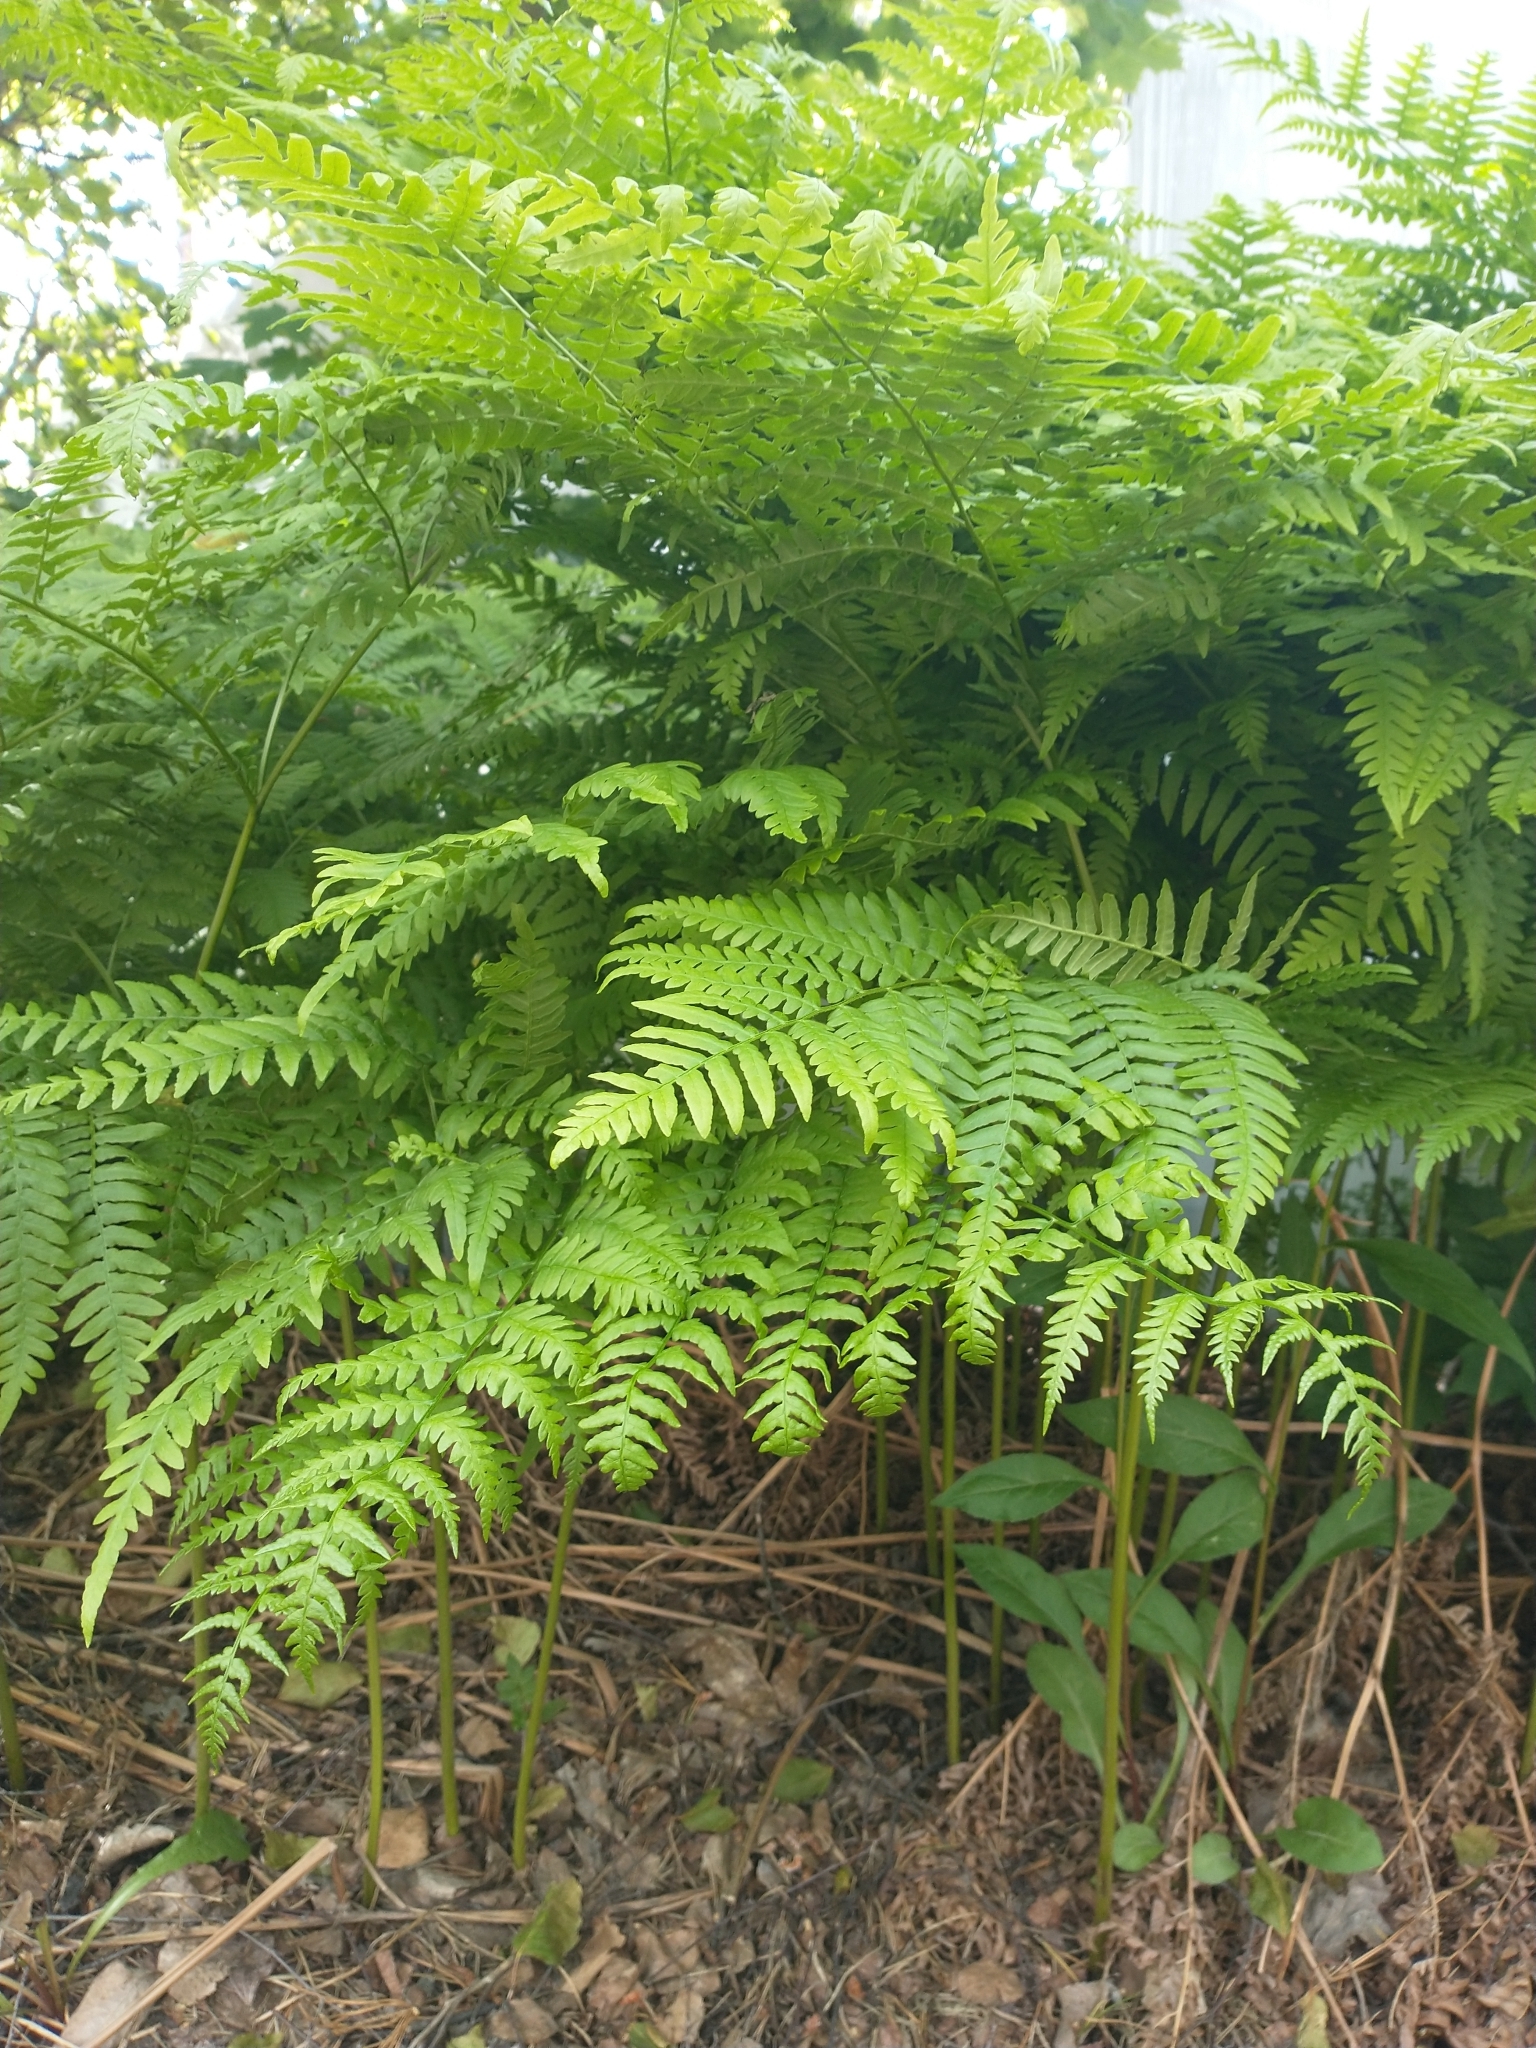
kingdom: Plantae
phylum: Tracheophyta
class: Polypodiopsida
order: Polypodiales
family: Dennstaedtiaceae
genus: Pteridium
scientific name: Pteridium aquilinum
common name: Bracken
